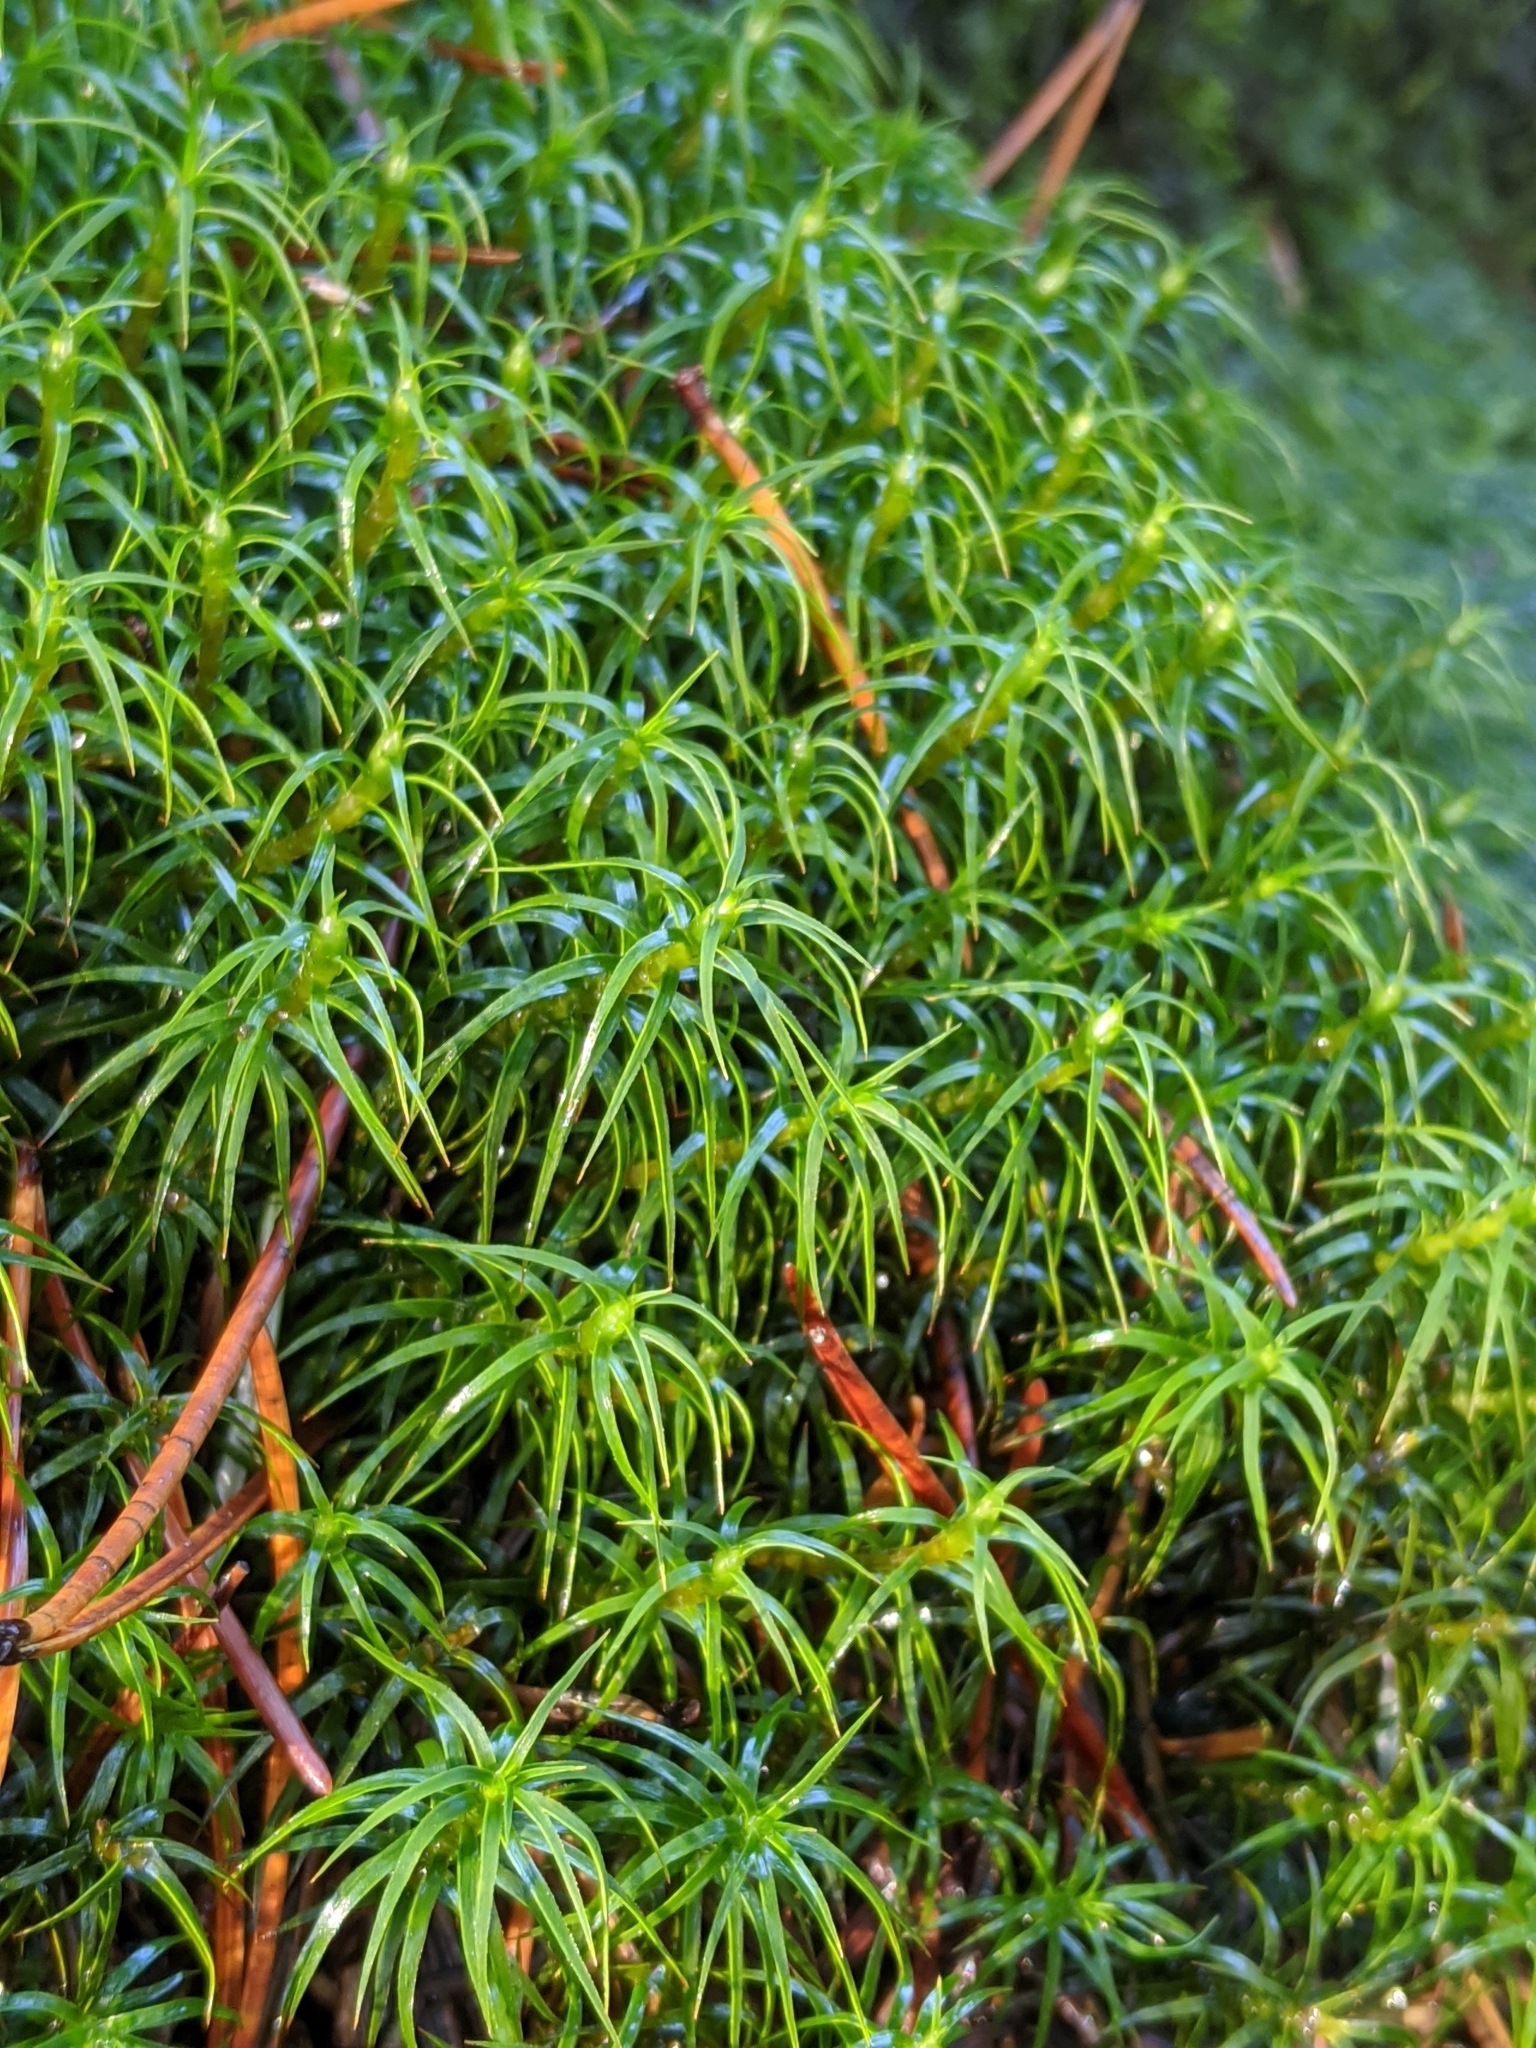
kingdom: Plantae
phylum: Bryophyta
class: Polytrichopsida
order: Polytrichales
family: Polytrichaceae
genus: Polytrichastrum
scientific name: Polytrichastrum alpinum
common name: Alpine haircap
